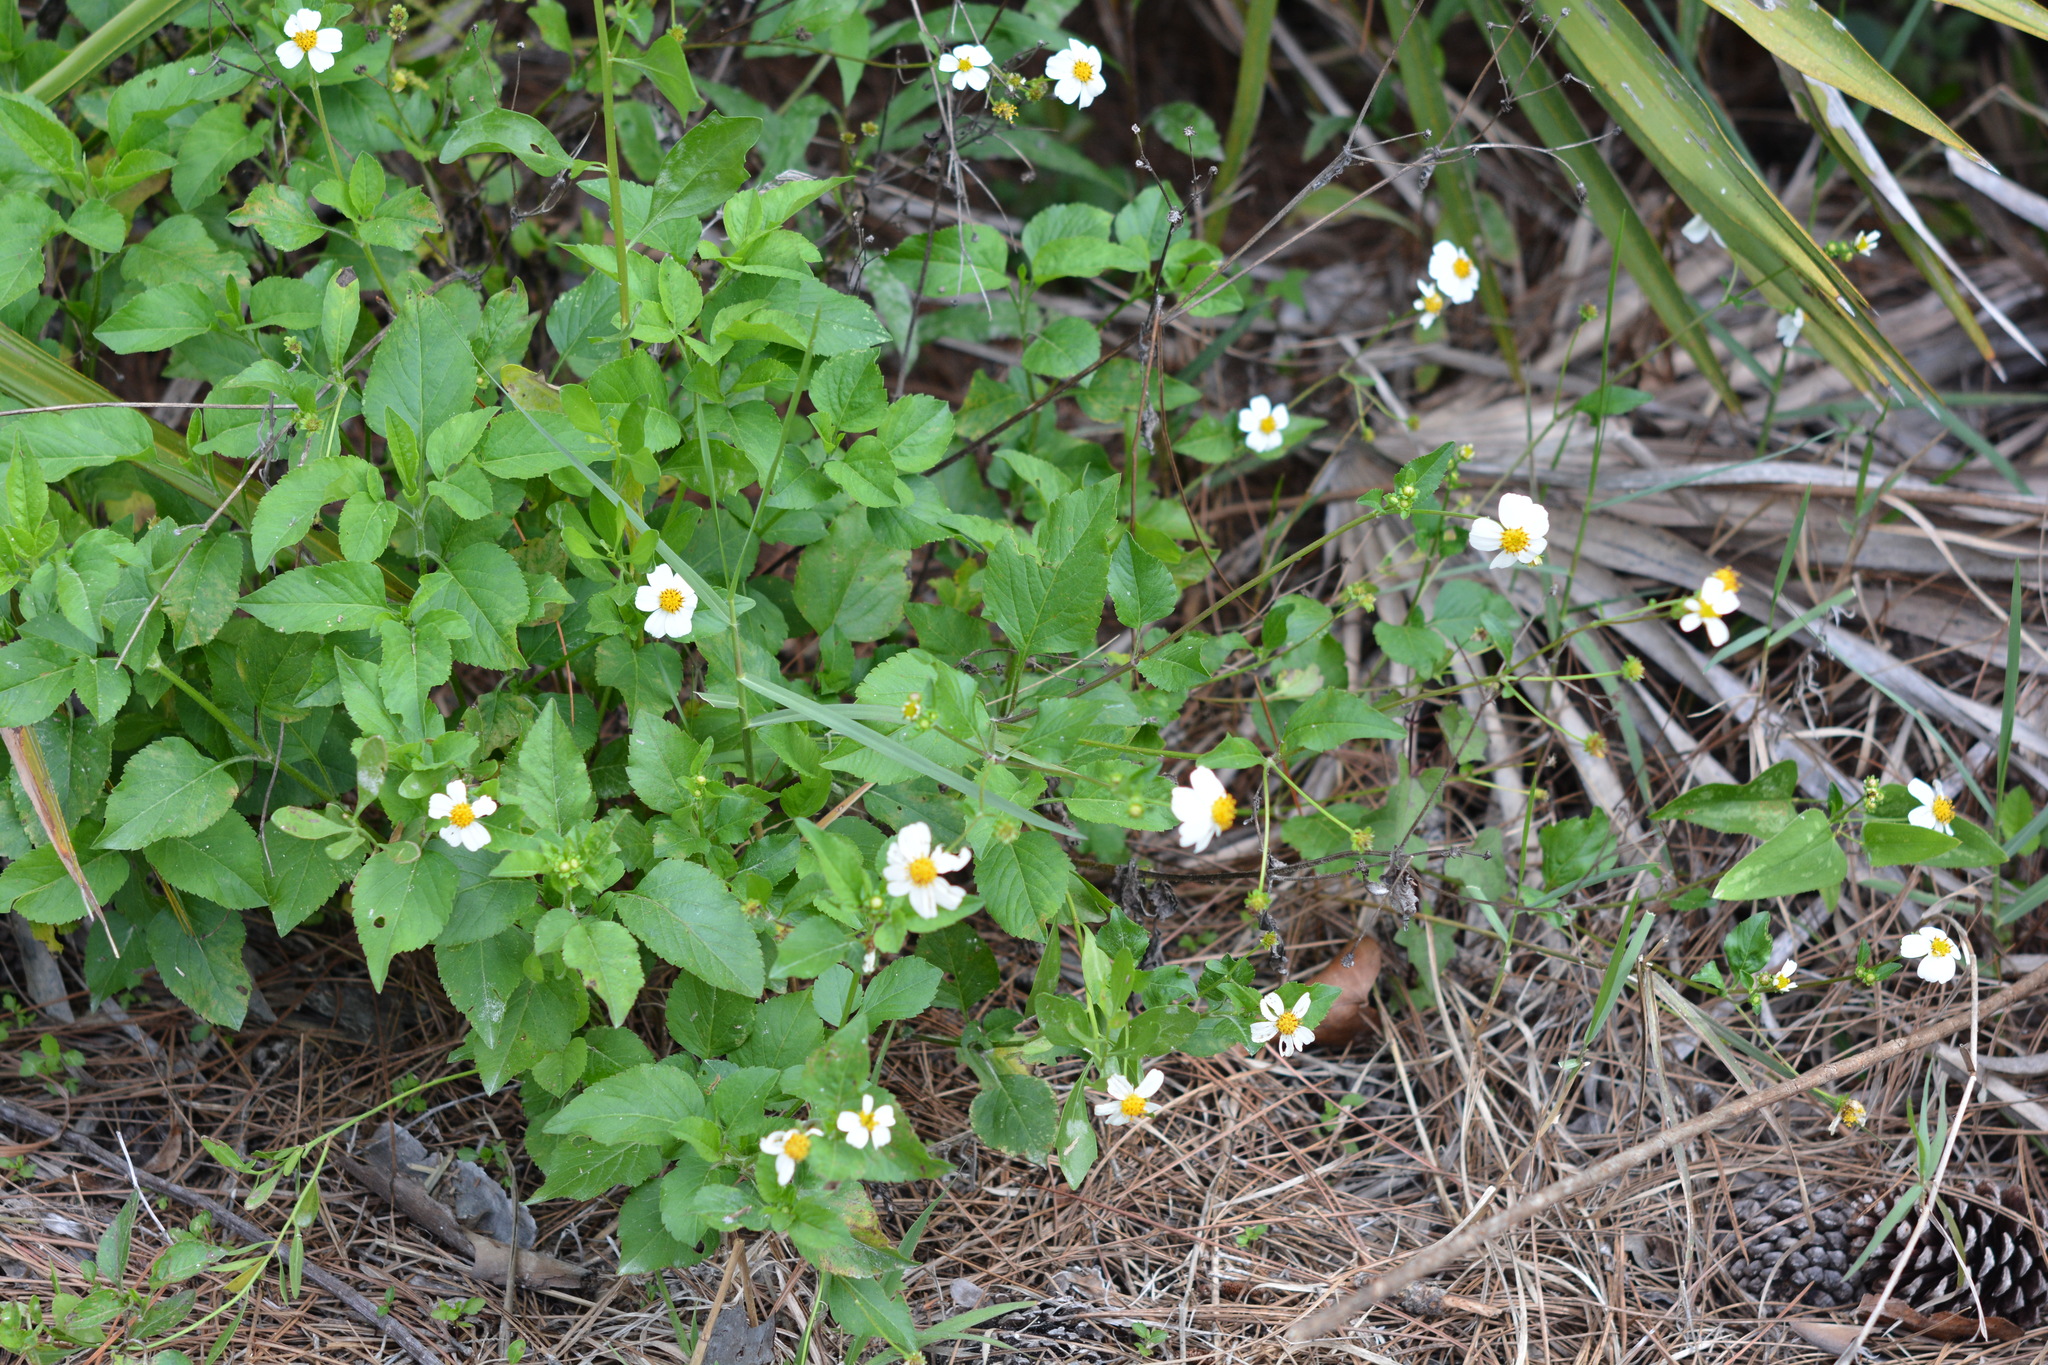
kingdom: Plantae
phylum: Tracheophyta
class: Magnoliopsida
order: Asterales
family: Asteraceae
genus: Bidens
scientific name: Bidens alba
